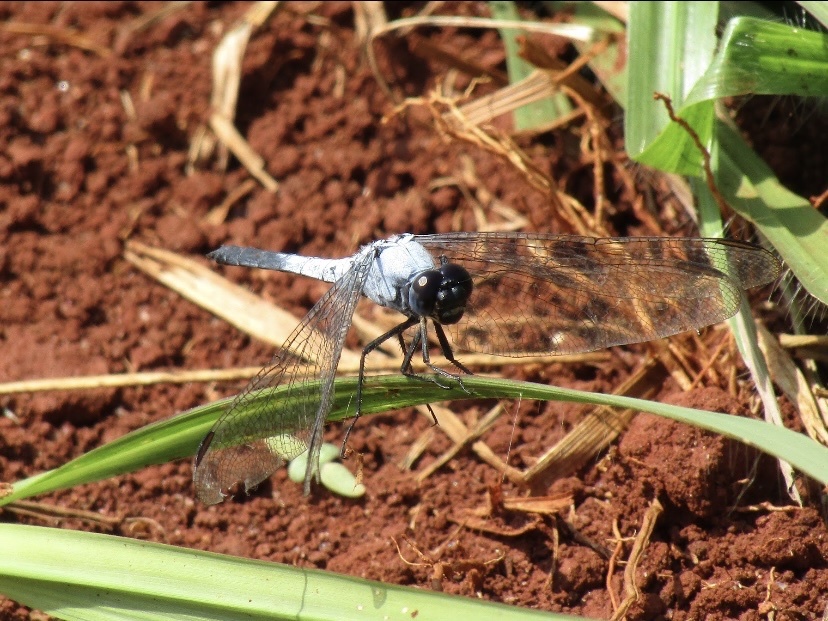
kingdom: Animalia
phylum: Arthropoda
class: Insecta
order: Odonata
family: Libellulidae
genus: Nesciothemis
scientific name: Nesciothemis farinosa
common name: Eastern blacktail
